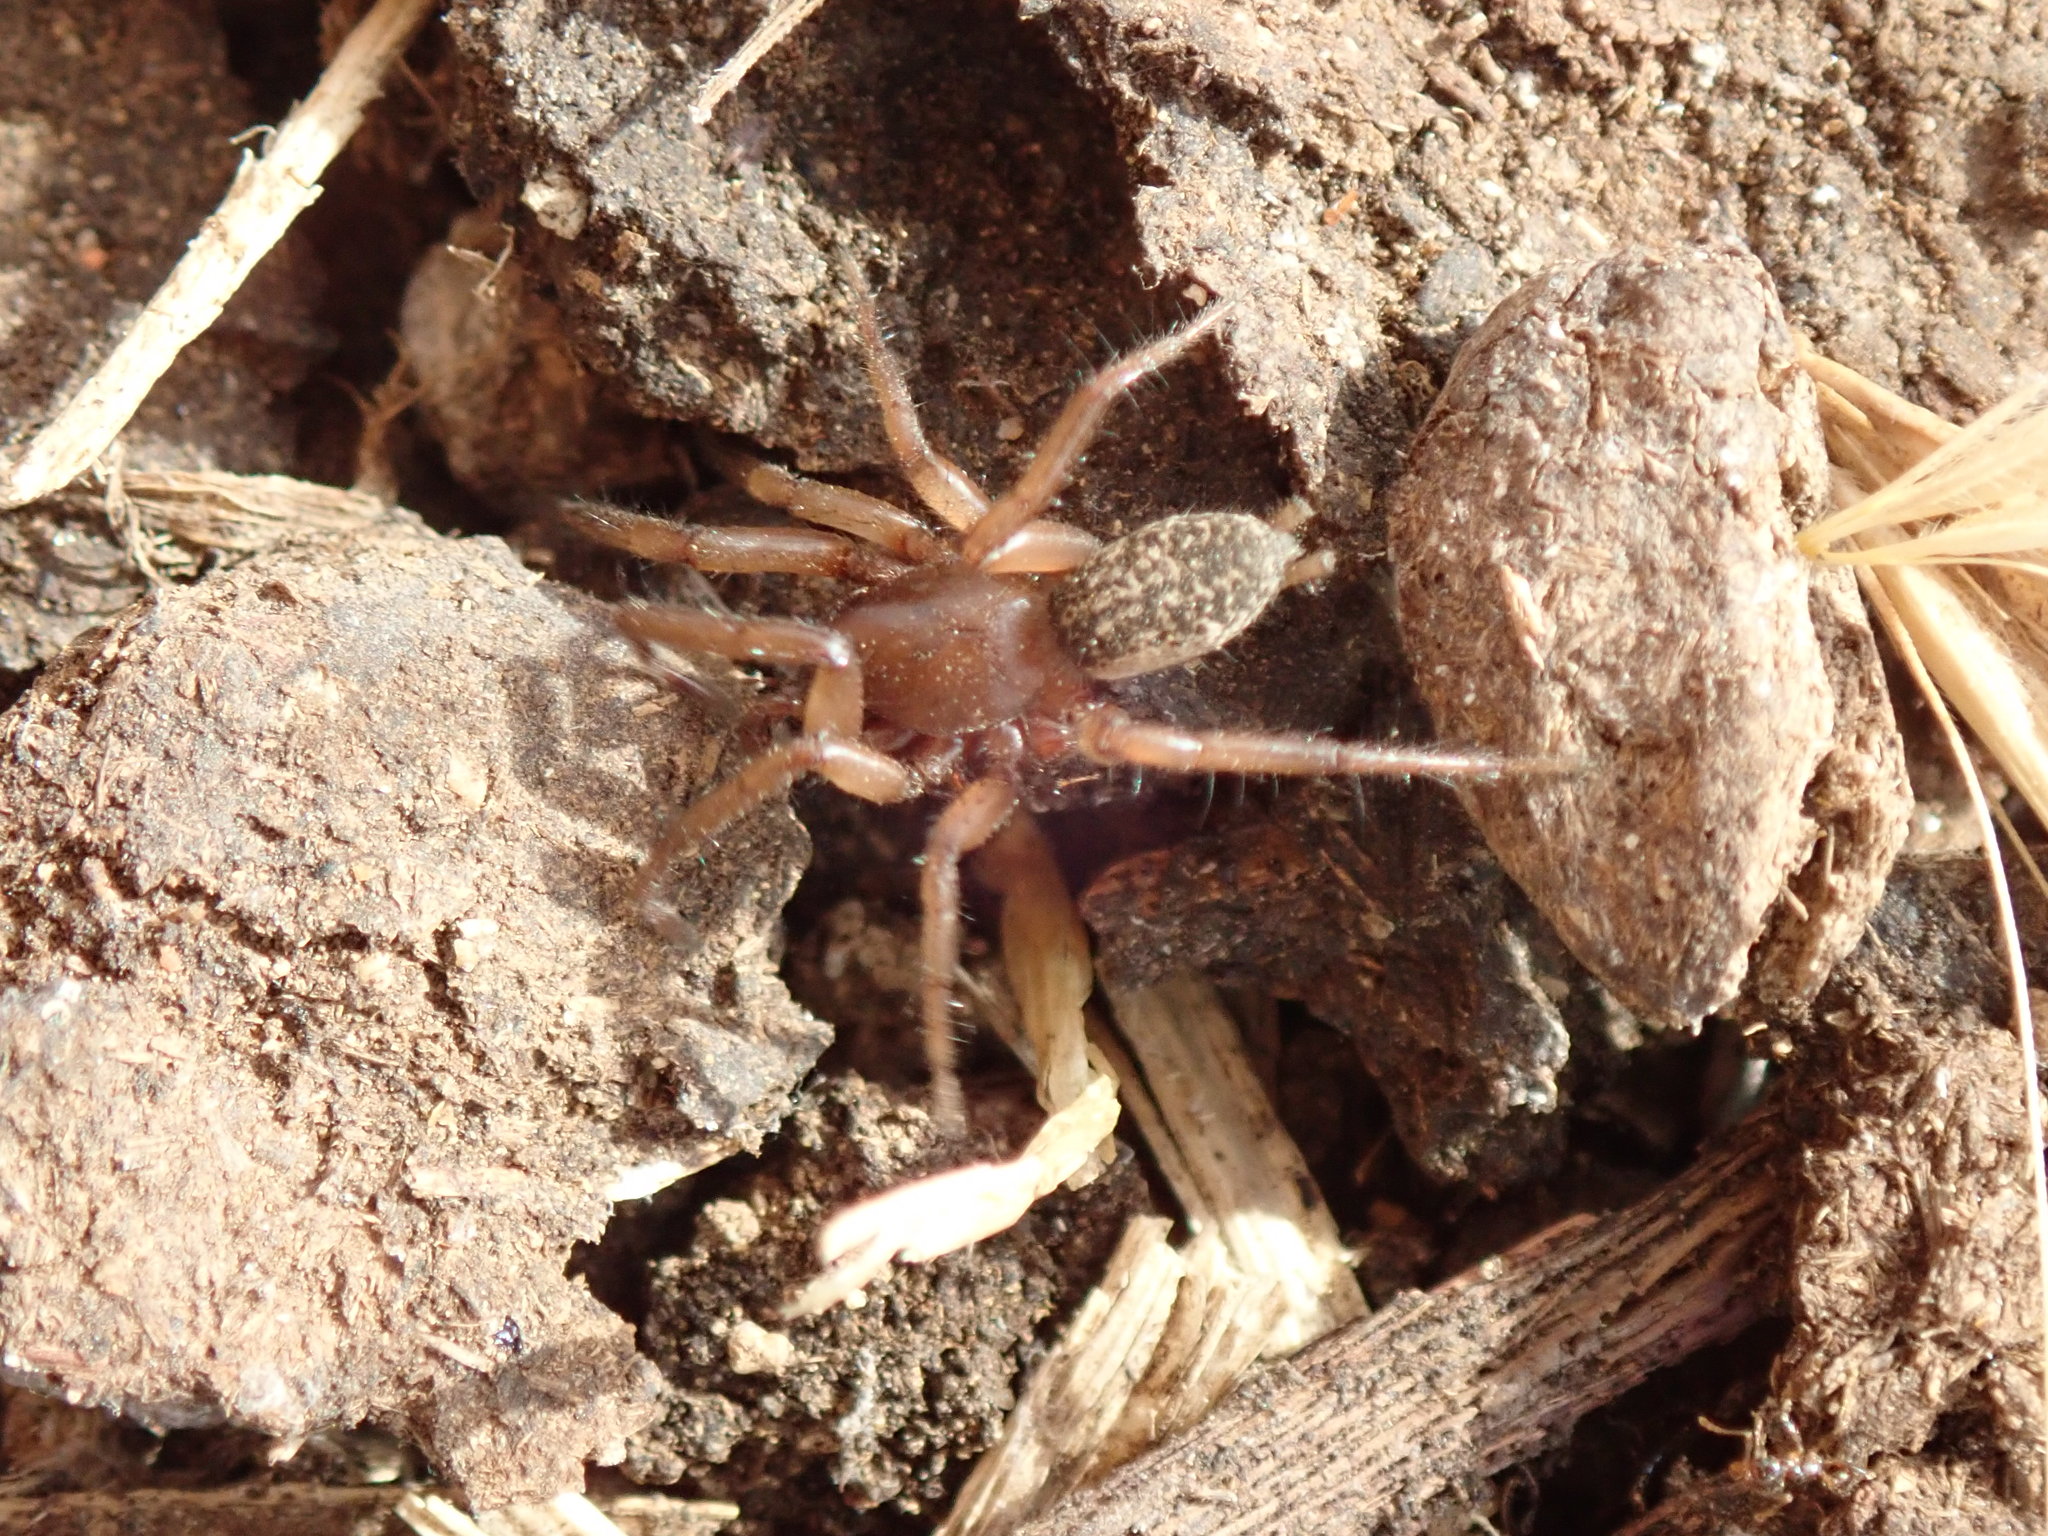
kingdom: Animalia
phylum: Arthropoda
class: Arachnida
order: Araneae
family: Gnaphosidae
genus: Gnaphosa
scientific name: Gnaphosa alacris
